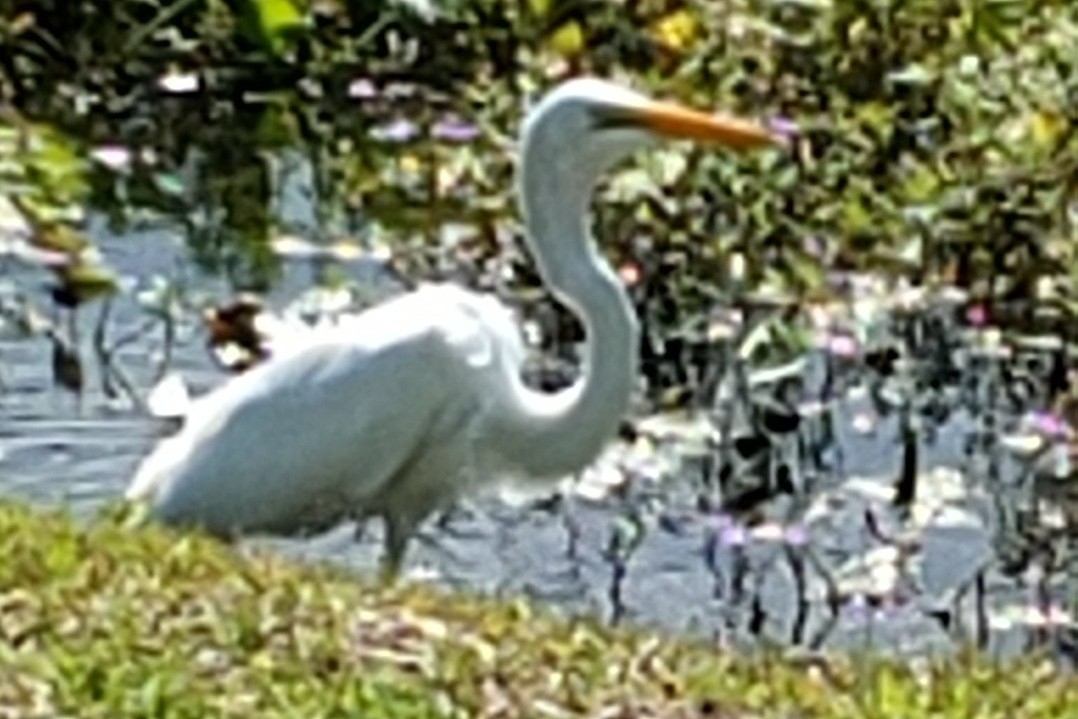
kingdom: Animalia
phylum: Chordata
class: Aves
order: Pelecaniformes
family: Ardeidae
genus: Ardea
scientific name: Ardea alba
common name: Great egret
